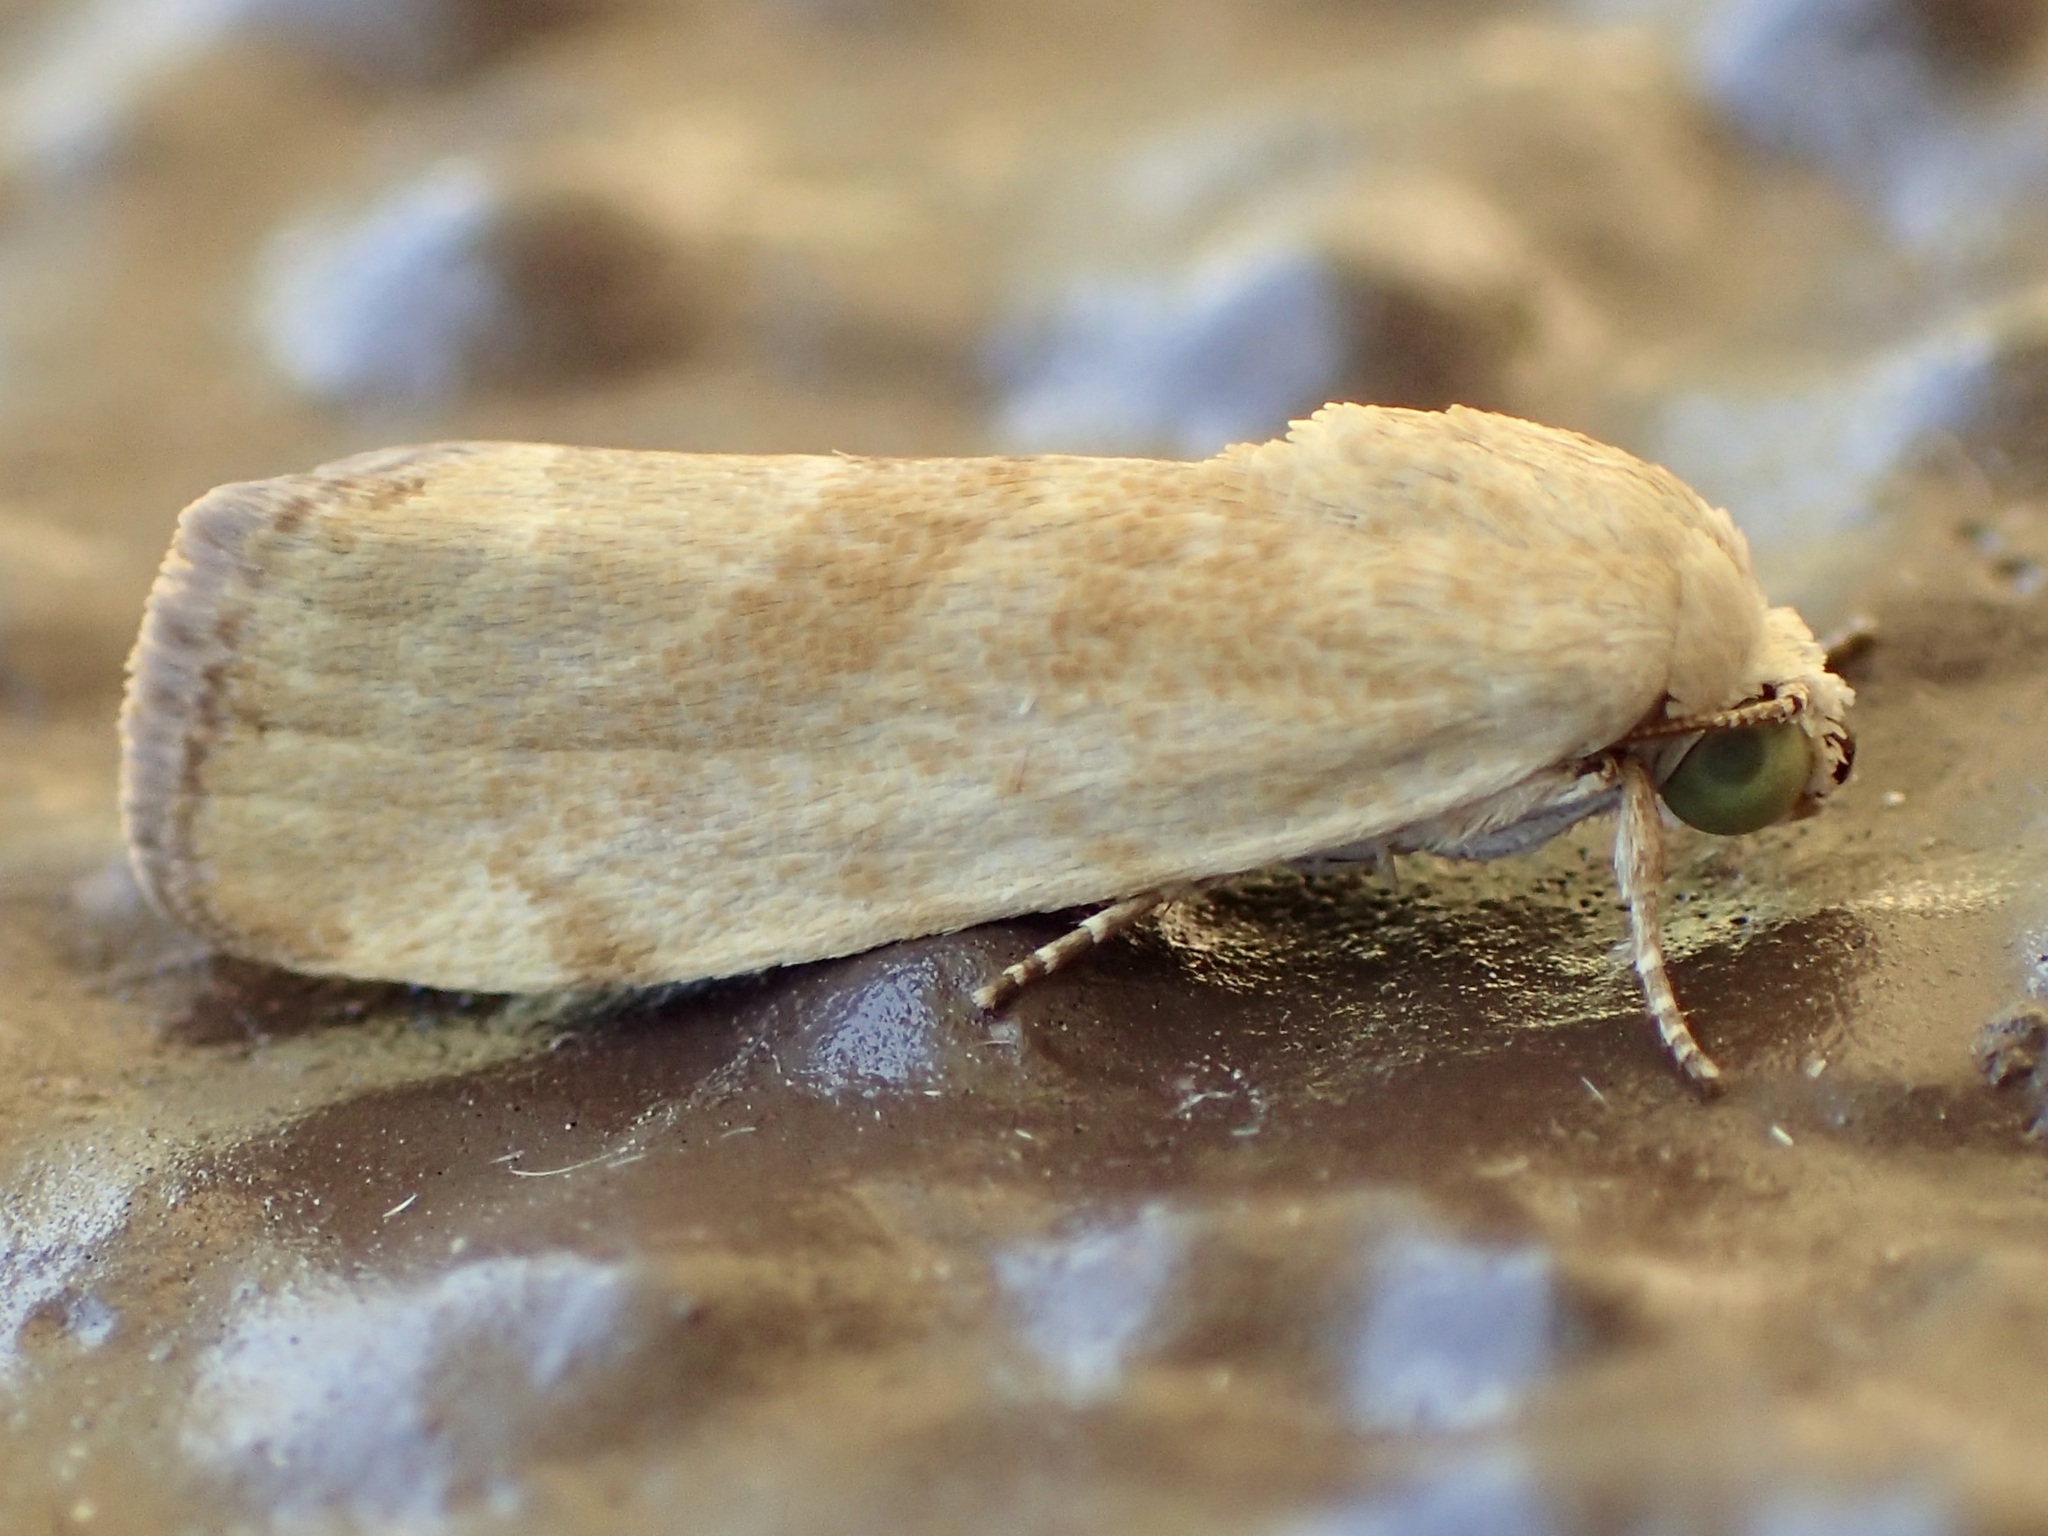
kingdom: Animalia
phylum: Arthropoda
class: Insecta
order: Lepidoptera
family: Noctuidae
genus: Acontia
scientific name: Acontia fasciatella
